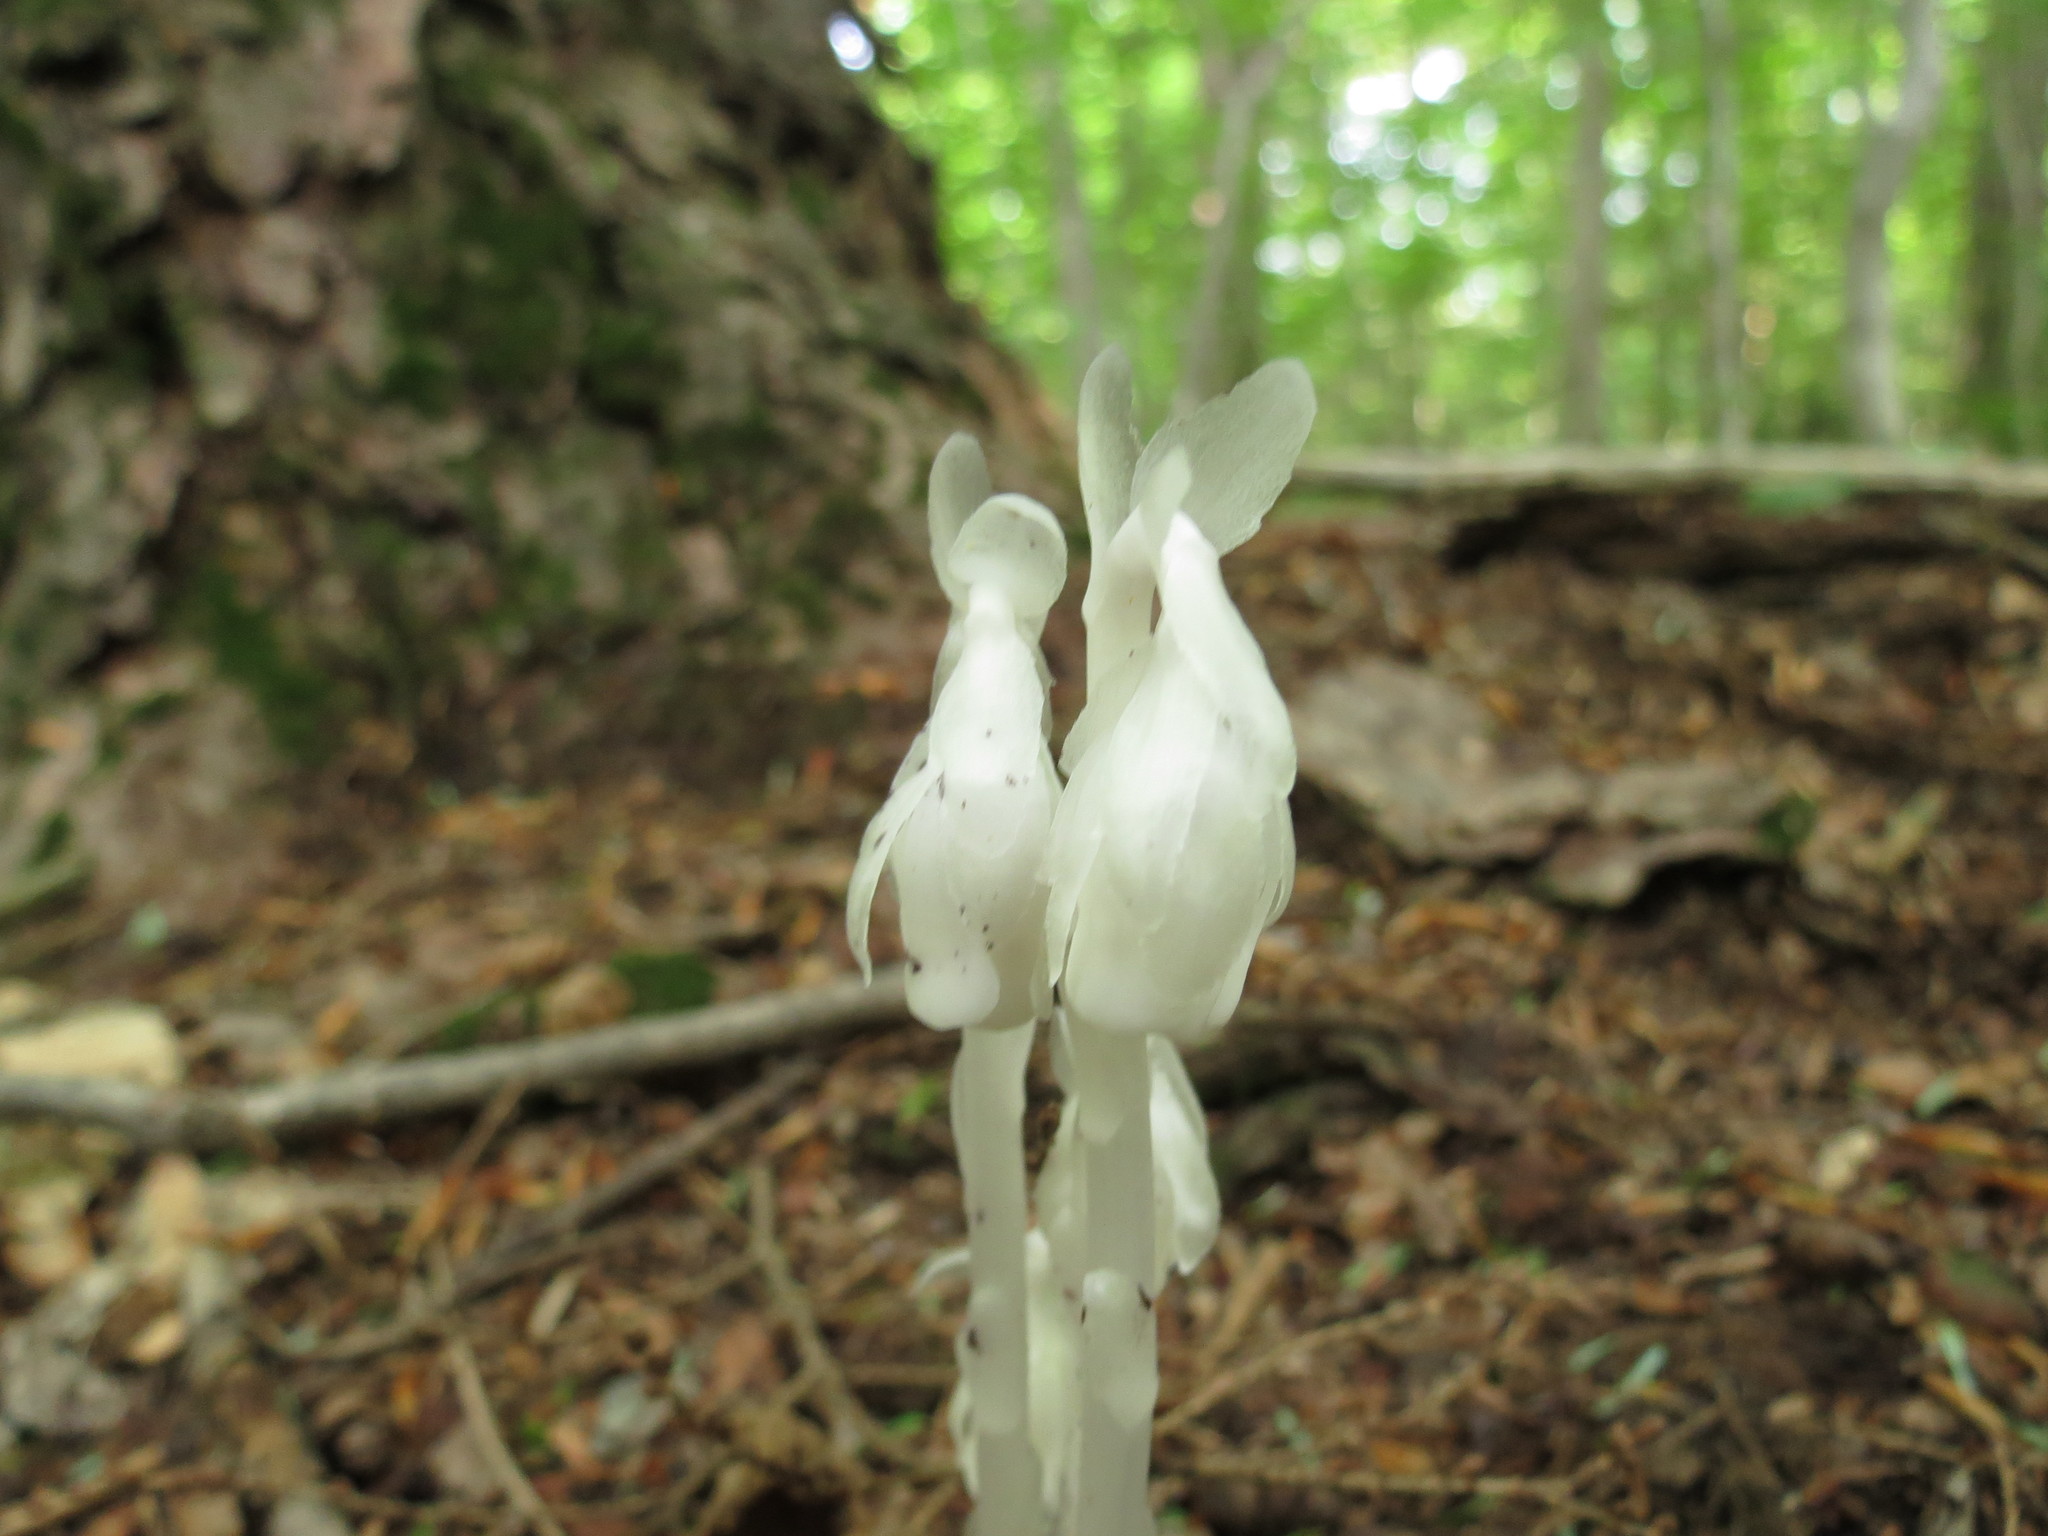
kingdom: Plantae
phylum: Tracheophyta
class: Magnoliopsida
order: Ericales
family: Ericaceae
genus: Monotropa
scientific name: Monotropa uniflora
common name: Convulsion root
